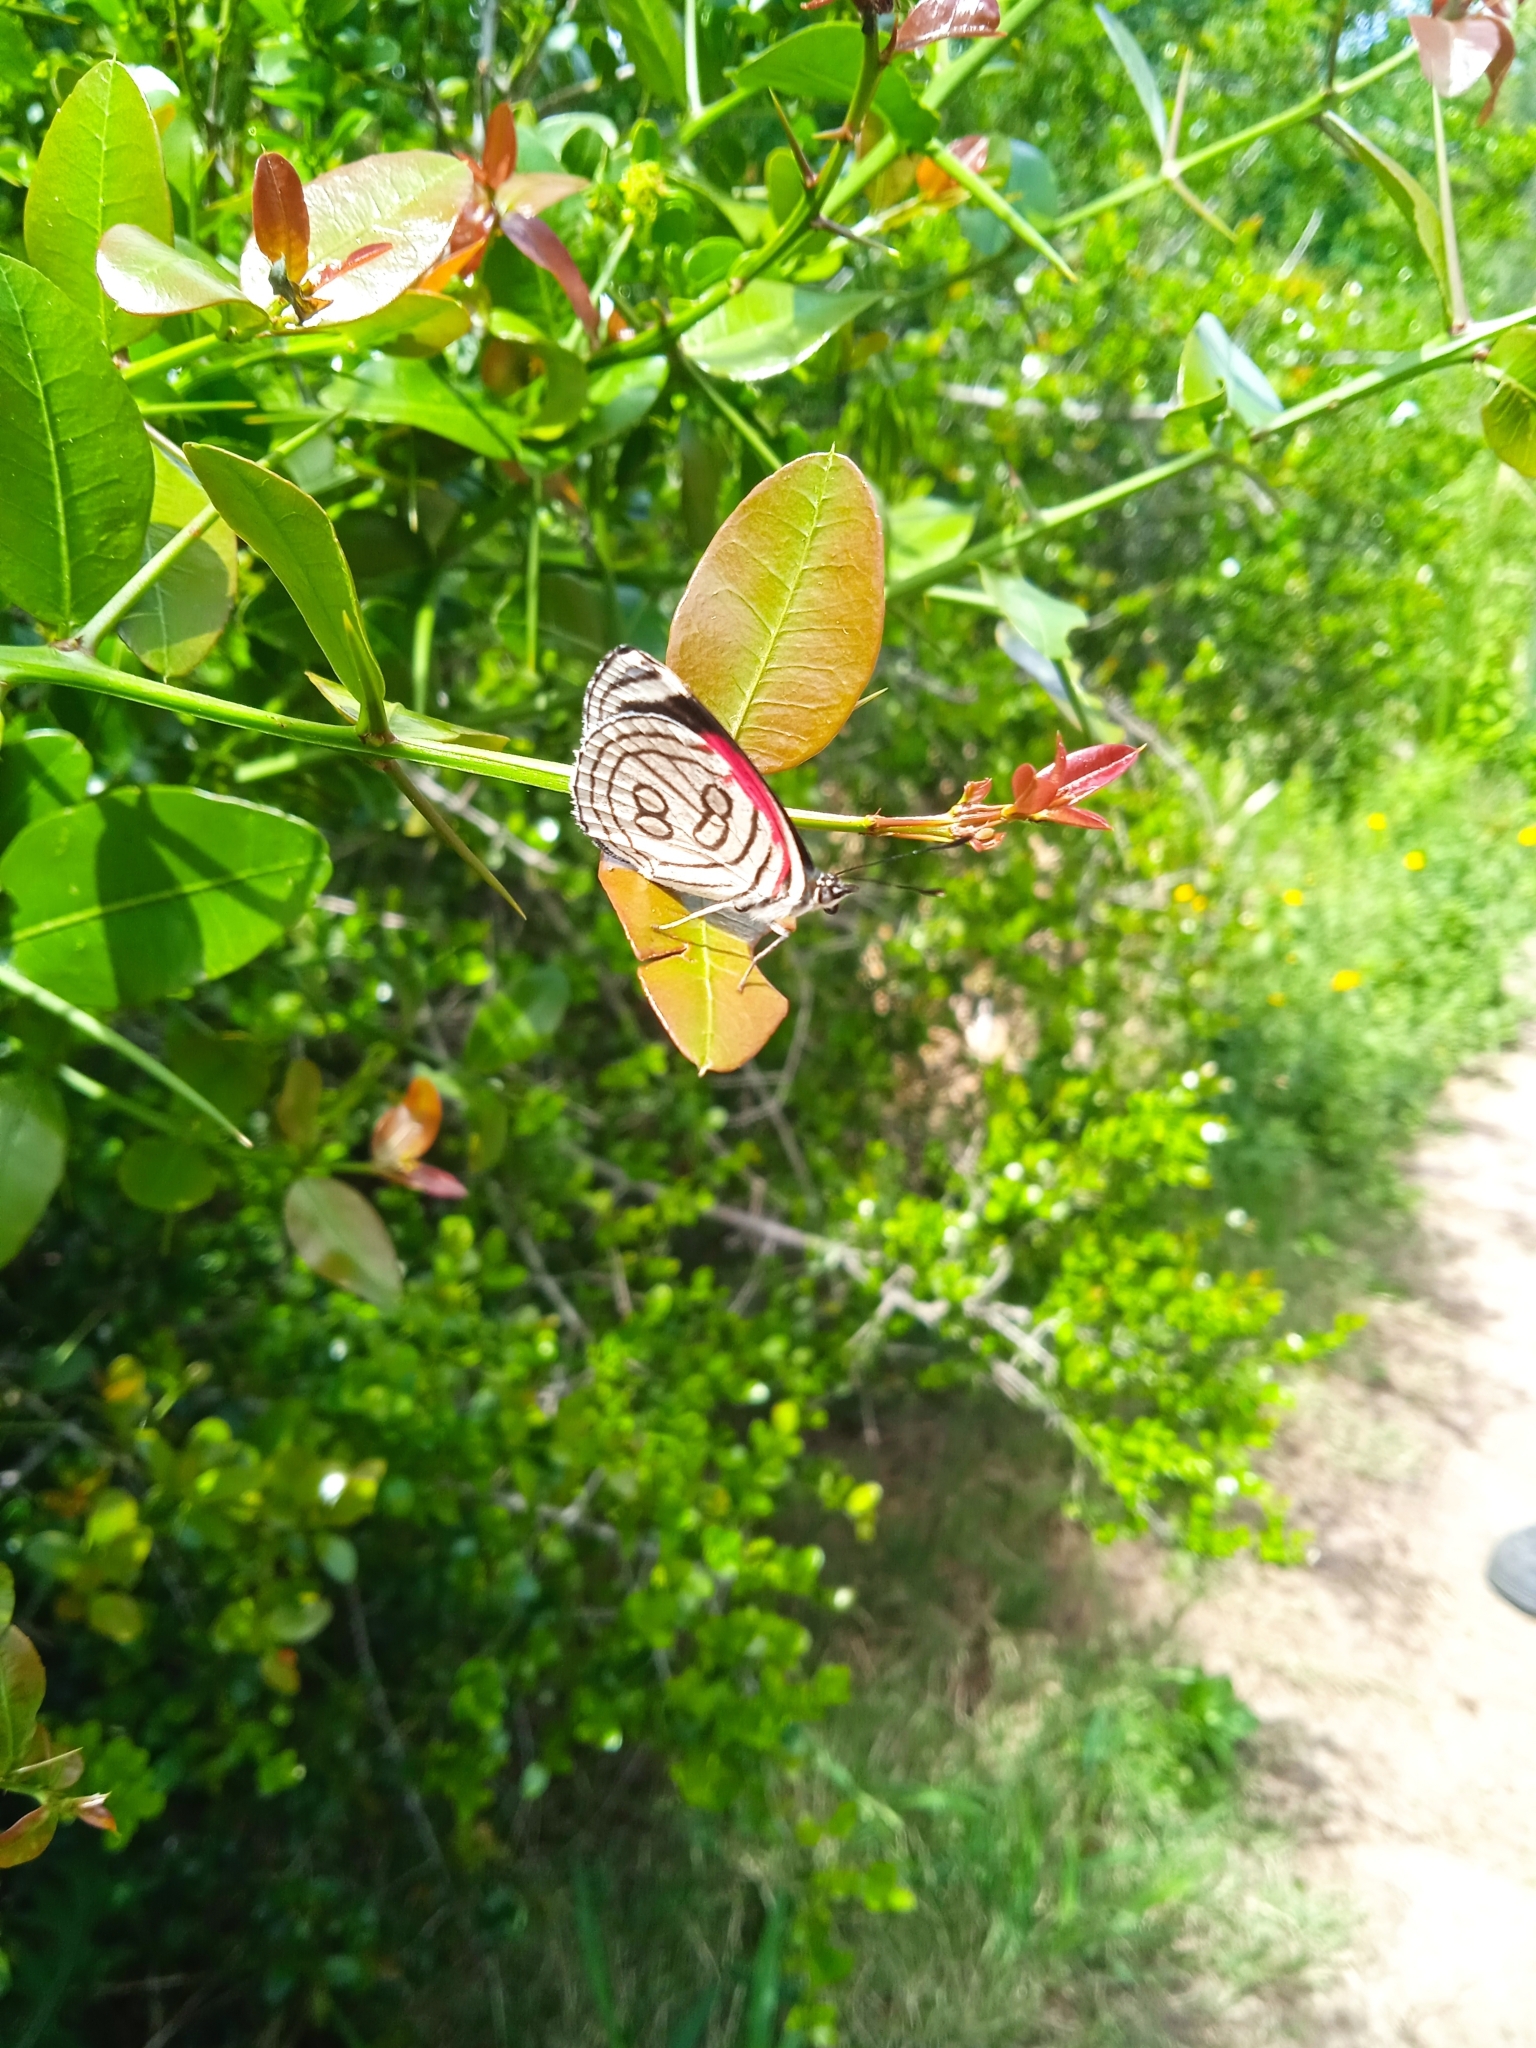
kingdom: Animalia
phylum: Arthropoda
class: Insecta
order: Lepidoptera
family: Nymphalidae
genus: Diaethria
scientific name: Diaethria candrena
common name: Number eighty
